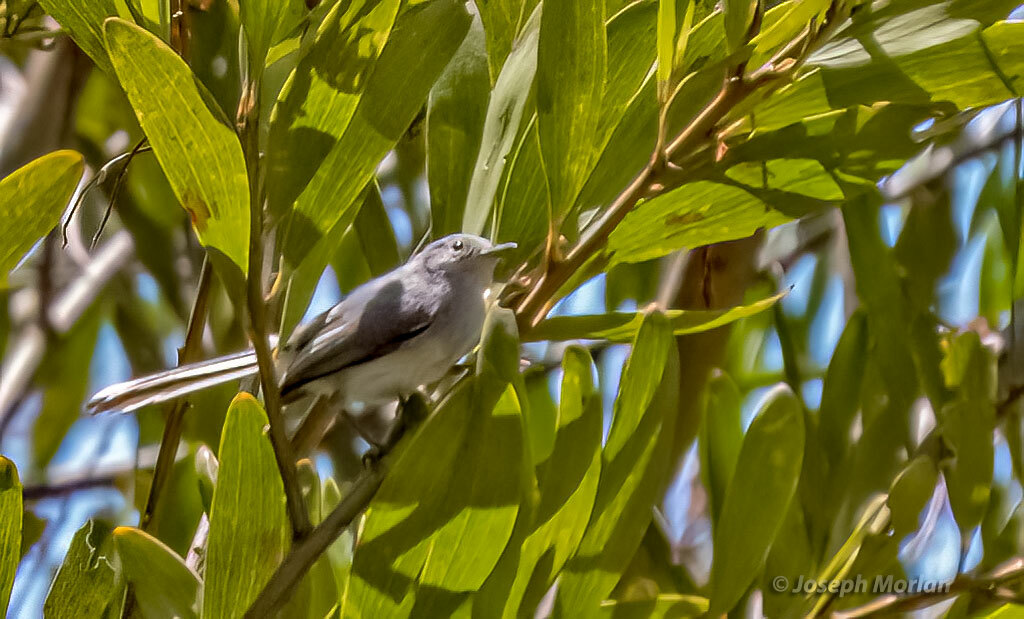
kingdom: Animalia
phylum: Chordata
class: Aves
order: Passeriformes
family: Polioptilidae
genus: Polioptila
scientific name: Polioptila dumicola
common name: Masked gnatcatcher
